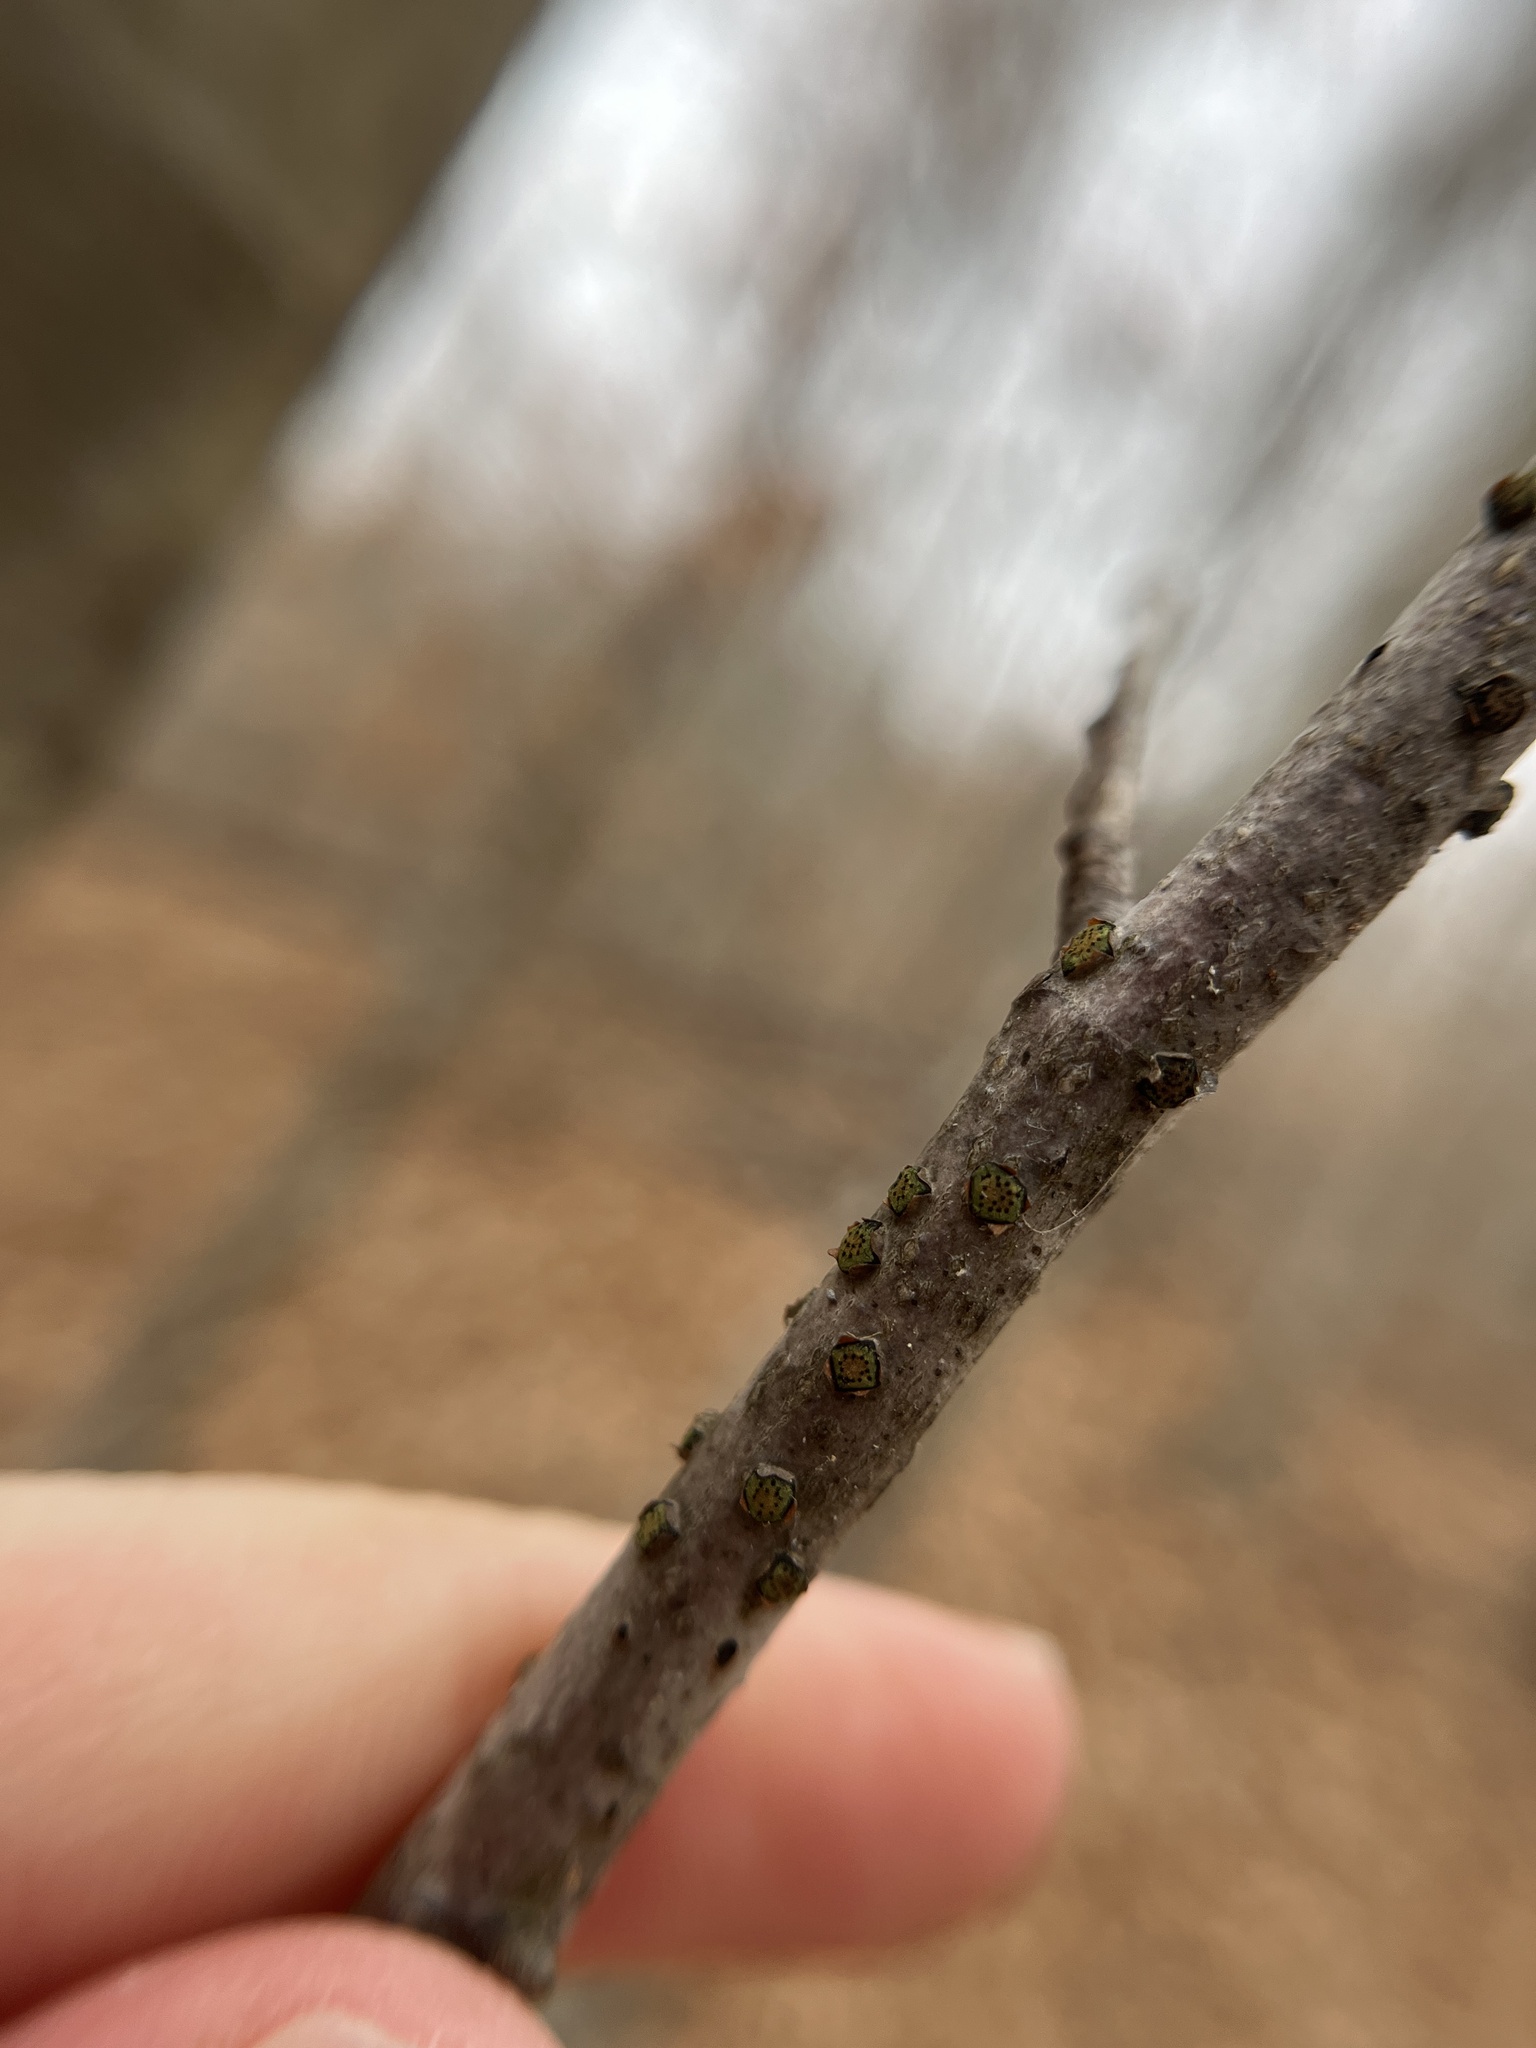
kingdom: Fungi
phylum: Ascomycota
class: Sordariomycetes
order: Xylariales
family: Diatrypaceae
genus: Diatrype
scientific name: Diatrype virescens
